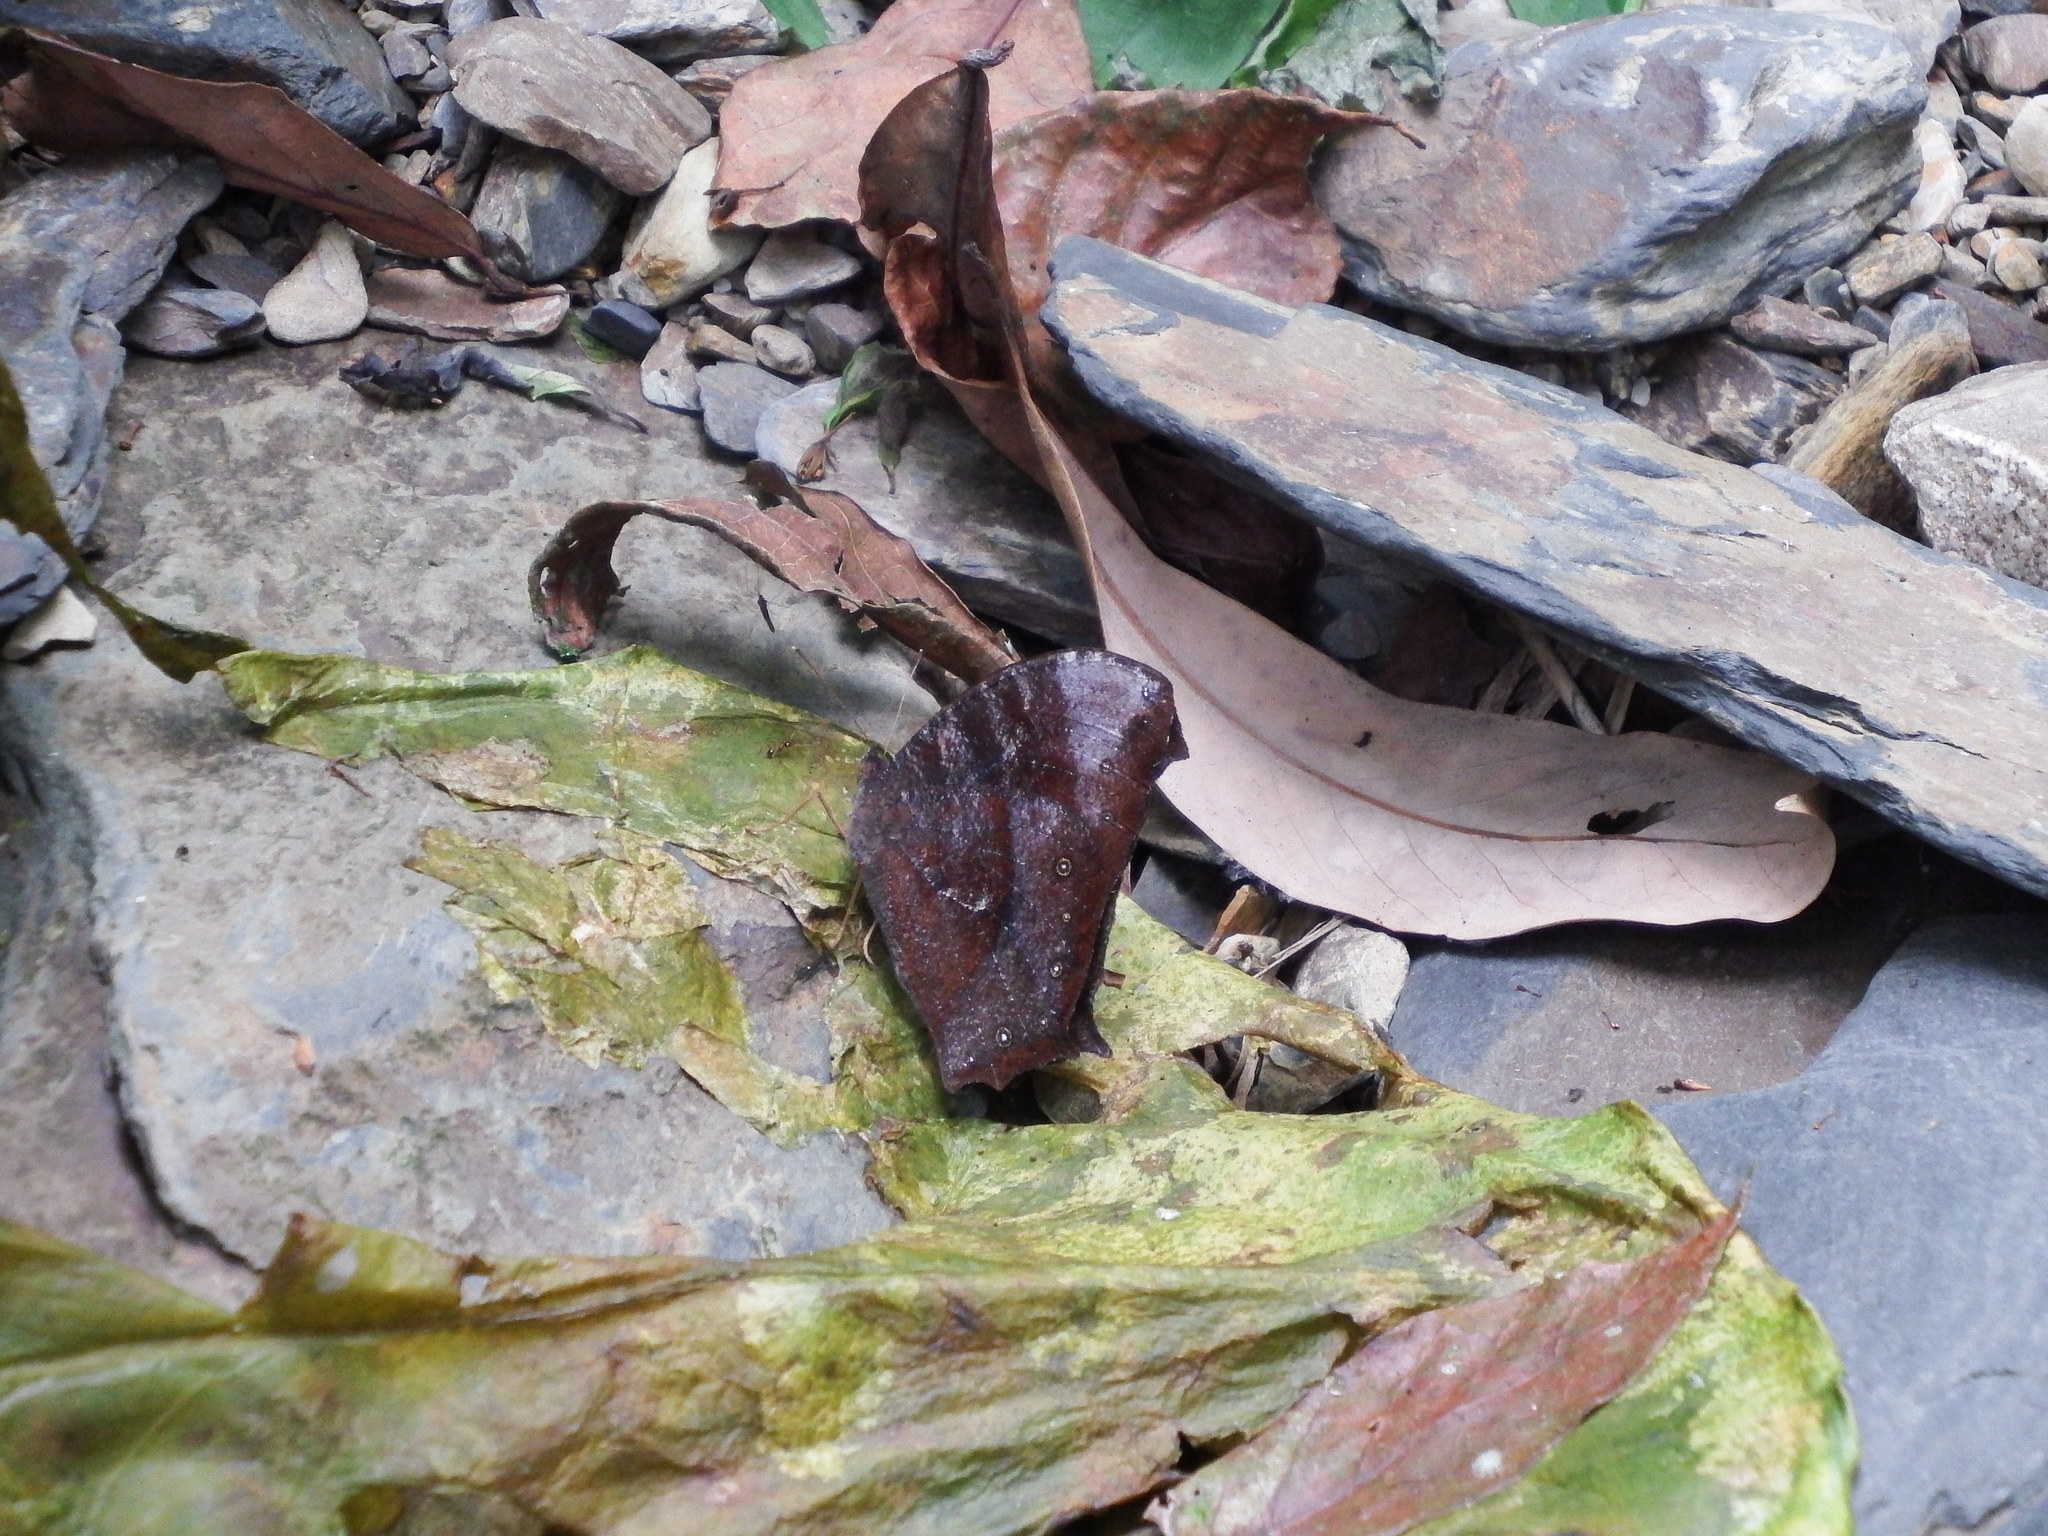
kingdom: Animalia
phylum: Arthropoda
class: Insecta
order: Lepidoptera
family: Nymphalidae
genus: Melanitis
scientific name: Melanitis phedima
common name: Dark evening brown
